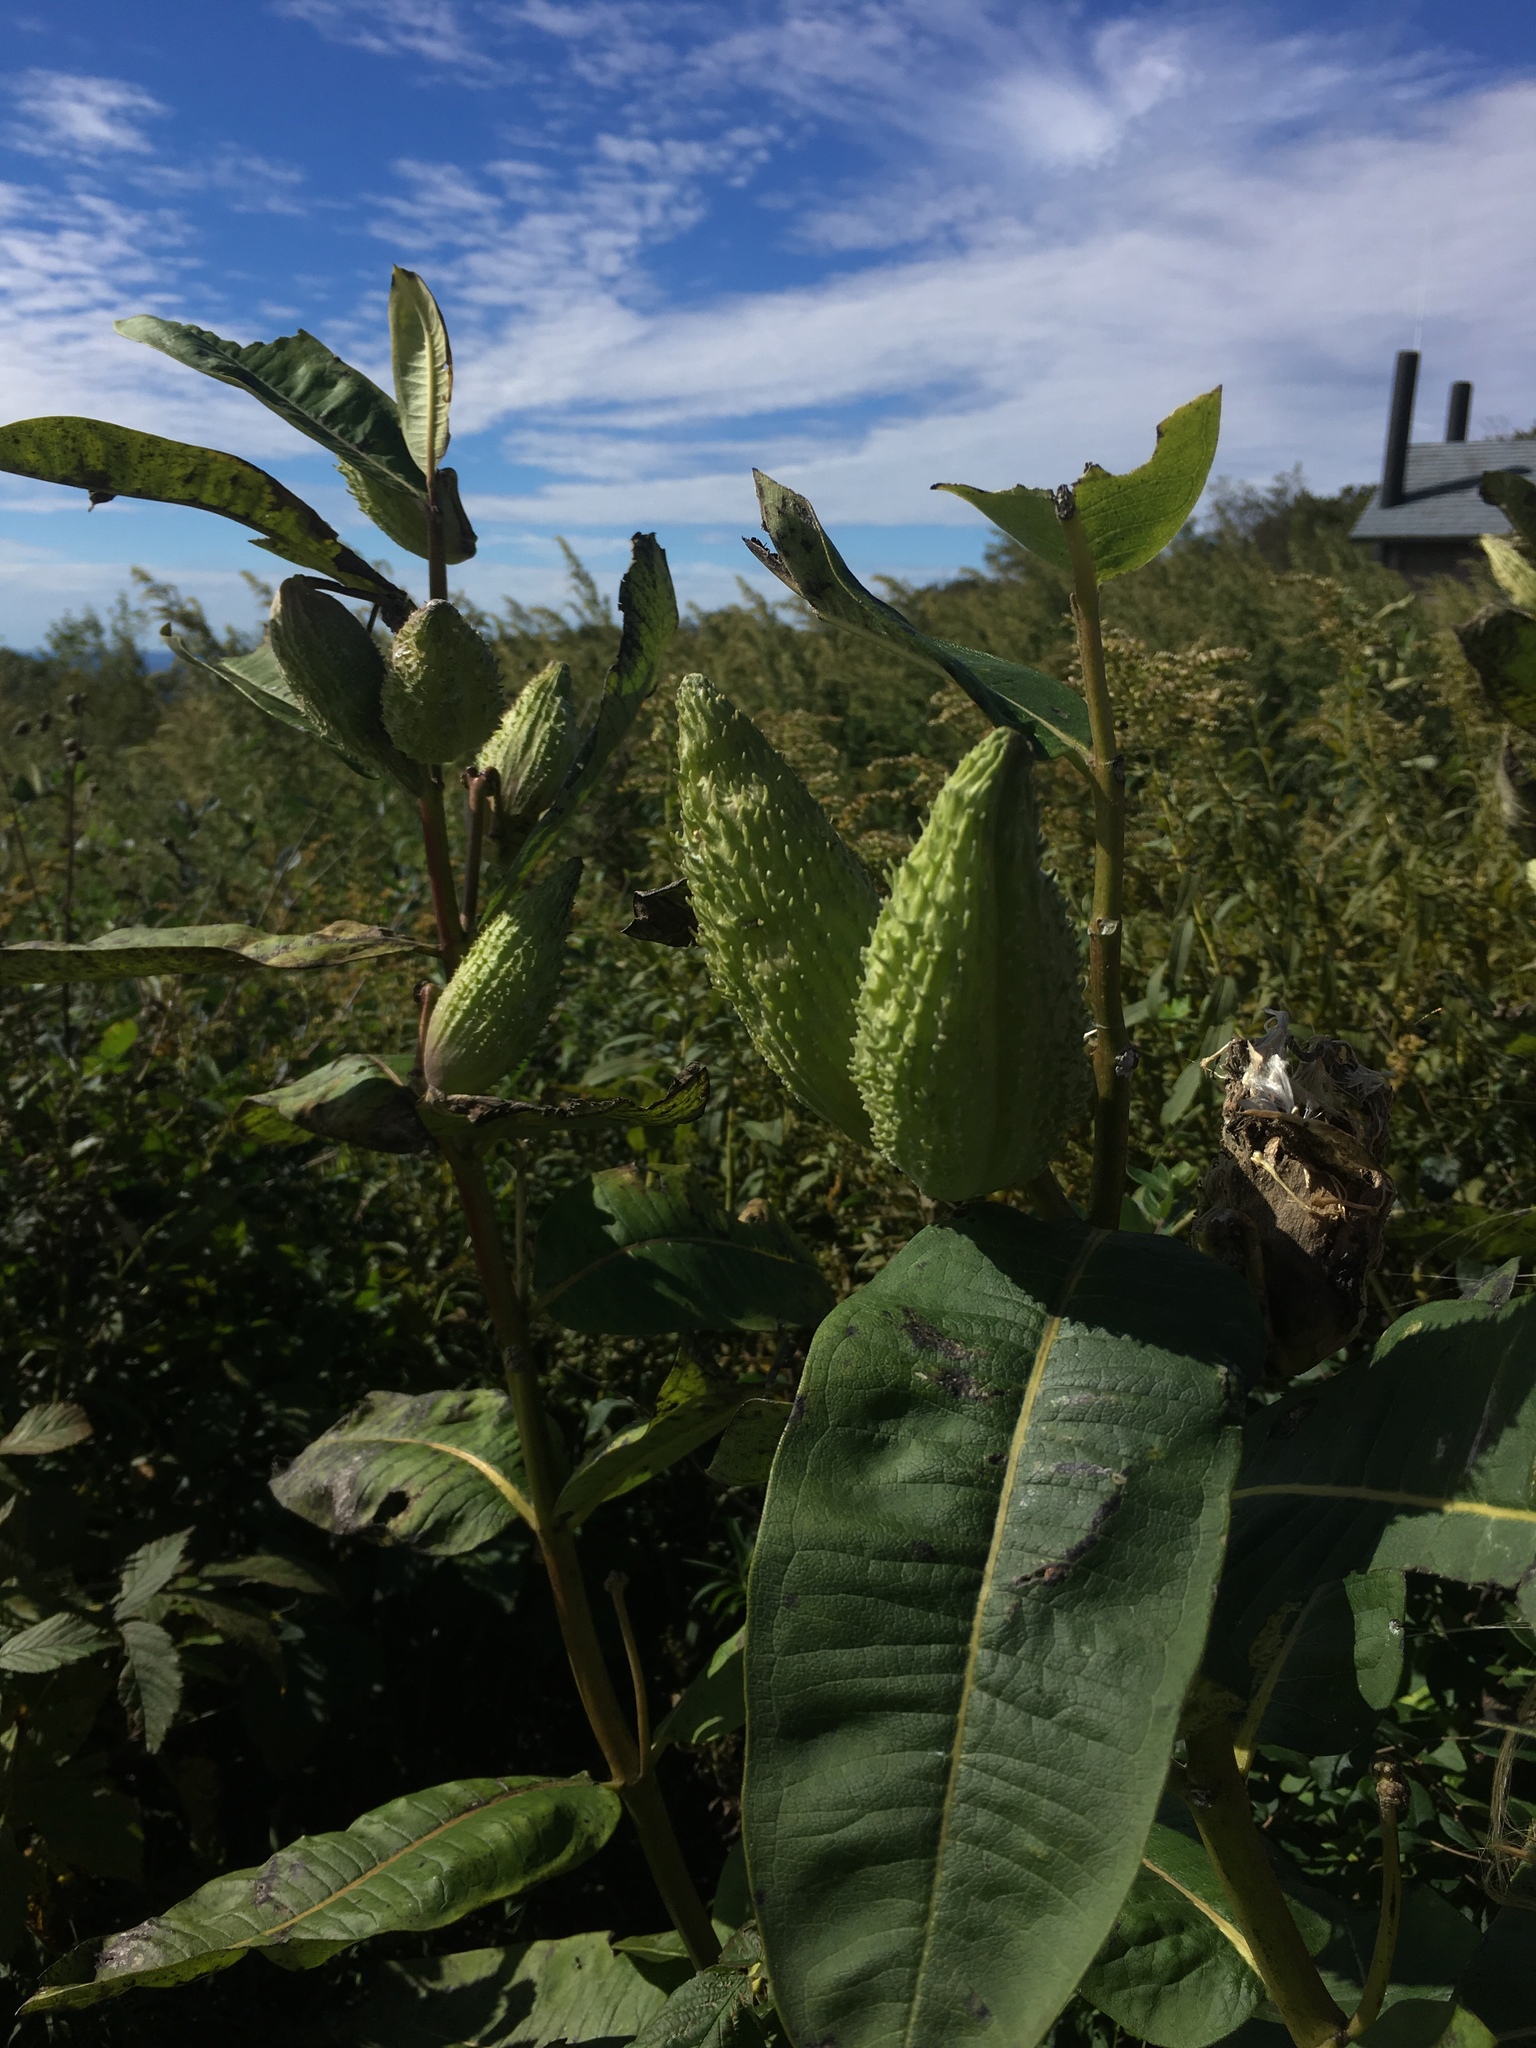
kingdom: Plantae
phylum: Tracheophyta
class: Magnoliopsida
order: Gentianales
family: Apocynaceae
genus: Asclepias
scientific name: Asclepias syriaca
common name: Common milkweed
